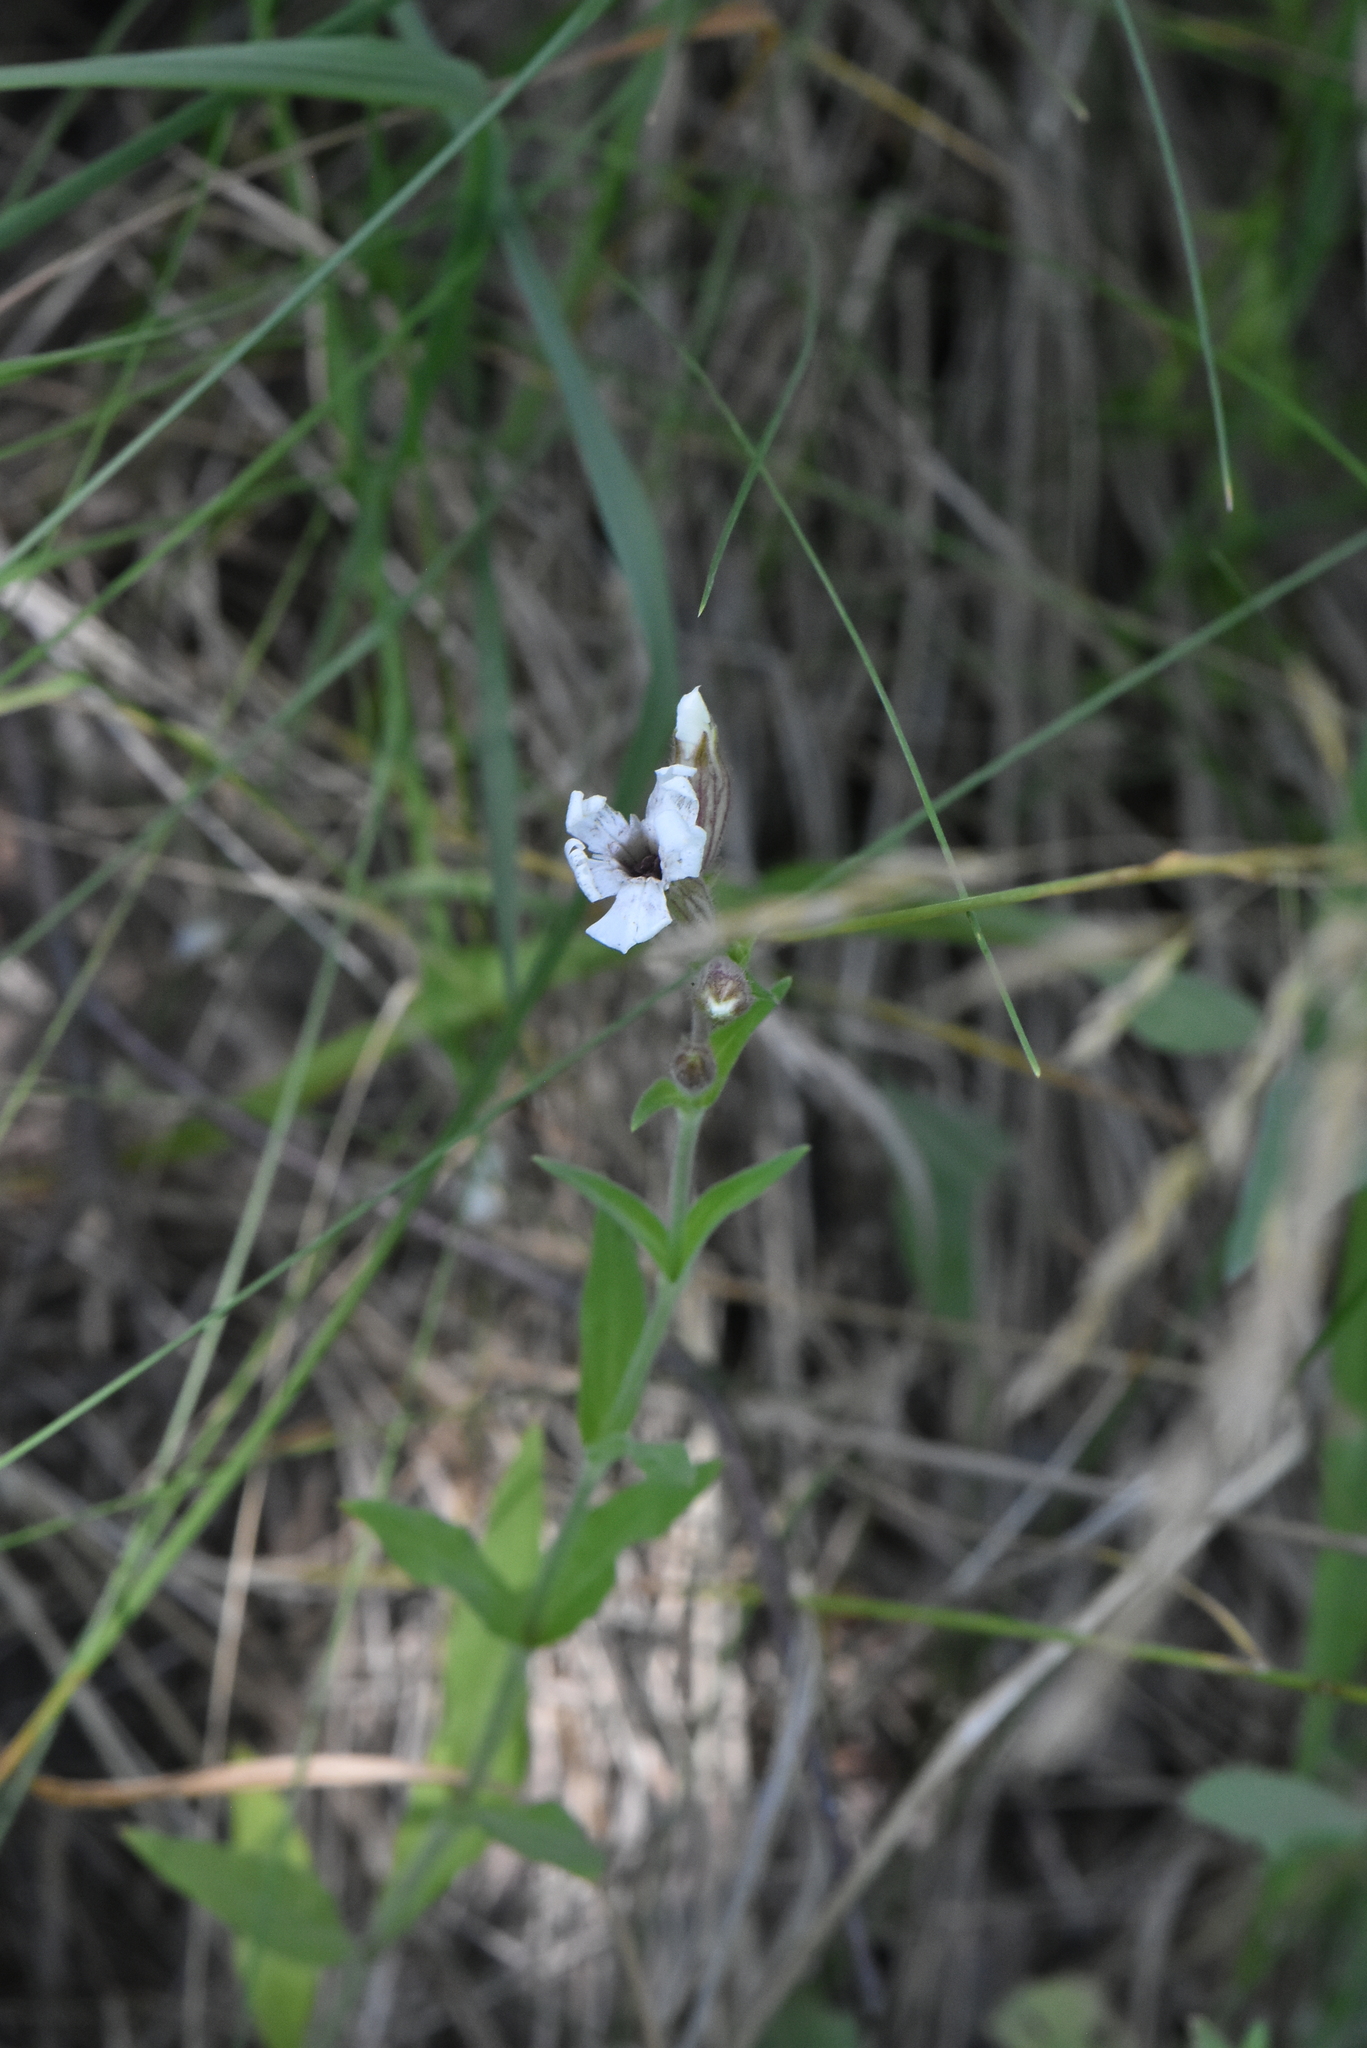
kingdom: Plantae
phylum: Tracheophyta
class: Magnoliopsida
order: Caryophyllales
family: Caryophyllaceae
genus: Silene
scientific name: Silene latifolia
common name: White campion
